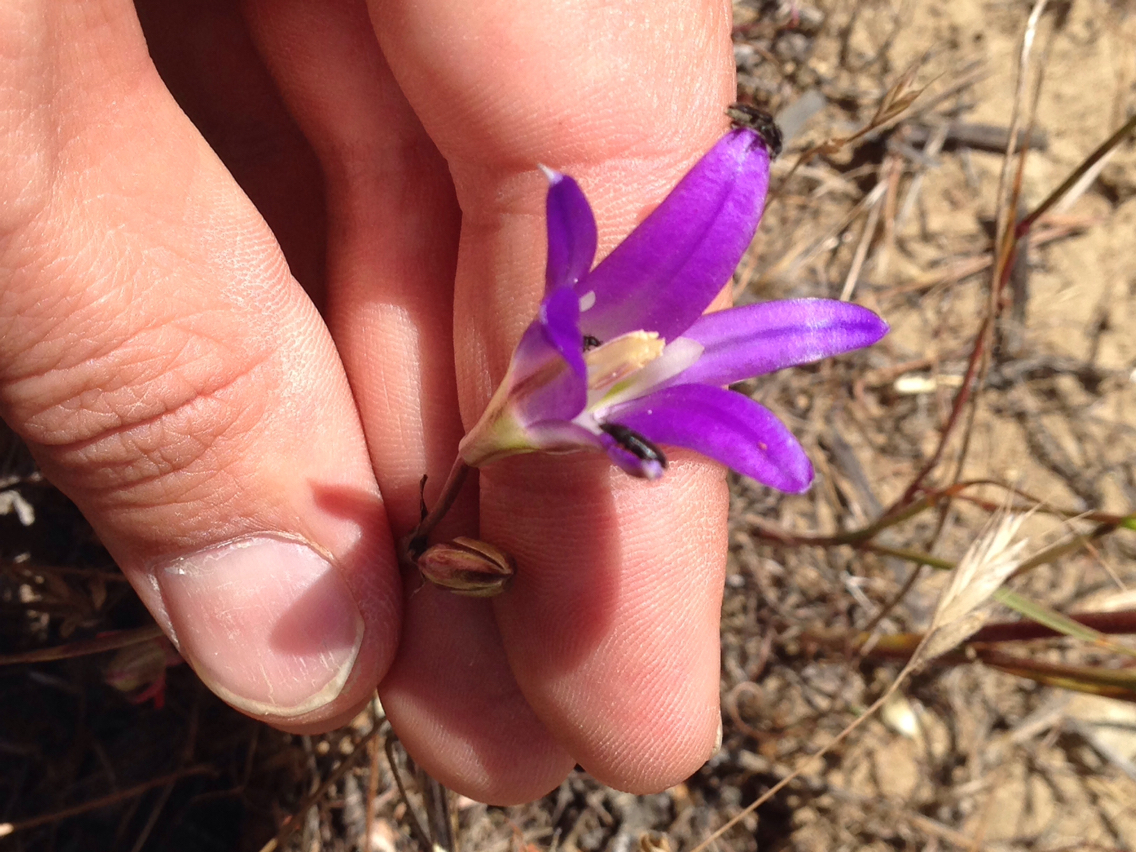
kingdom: Plantae
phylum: Tracheophyta
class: Liliopsida
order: Asparagales
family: Asparagaceae
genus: Brodiaea
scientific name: Brodiaea elegans
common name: Elegant cluster-lily
